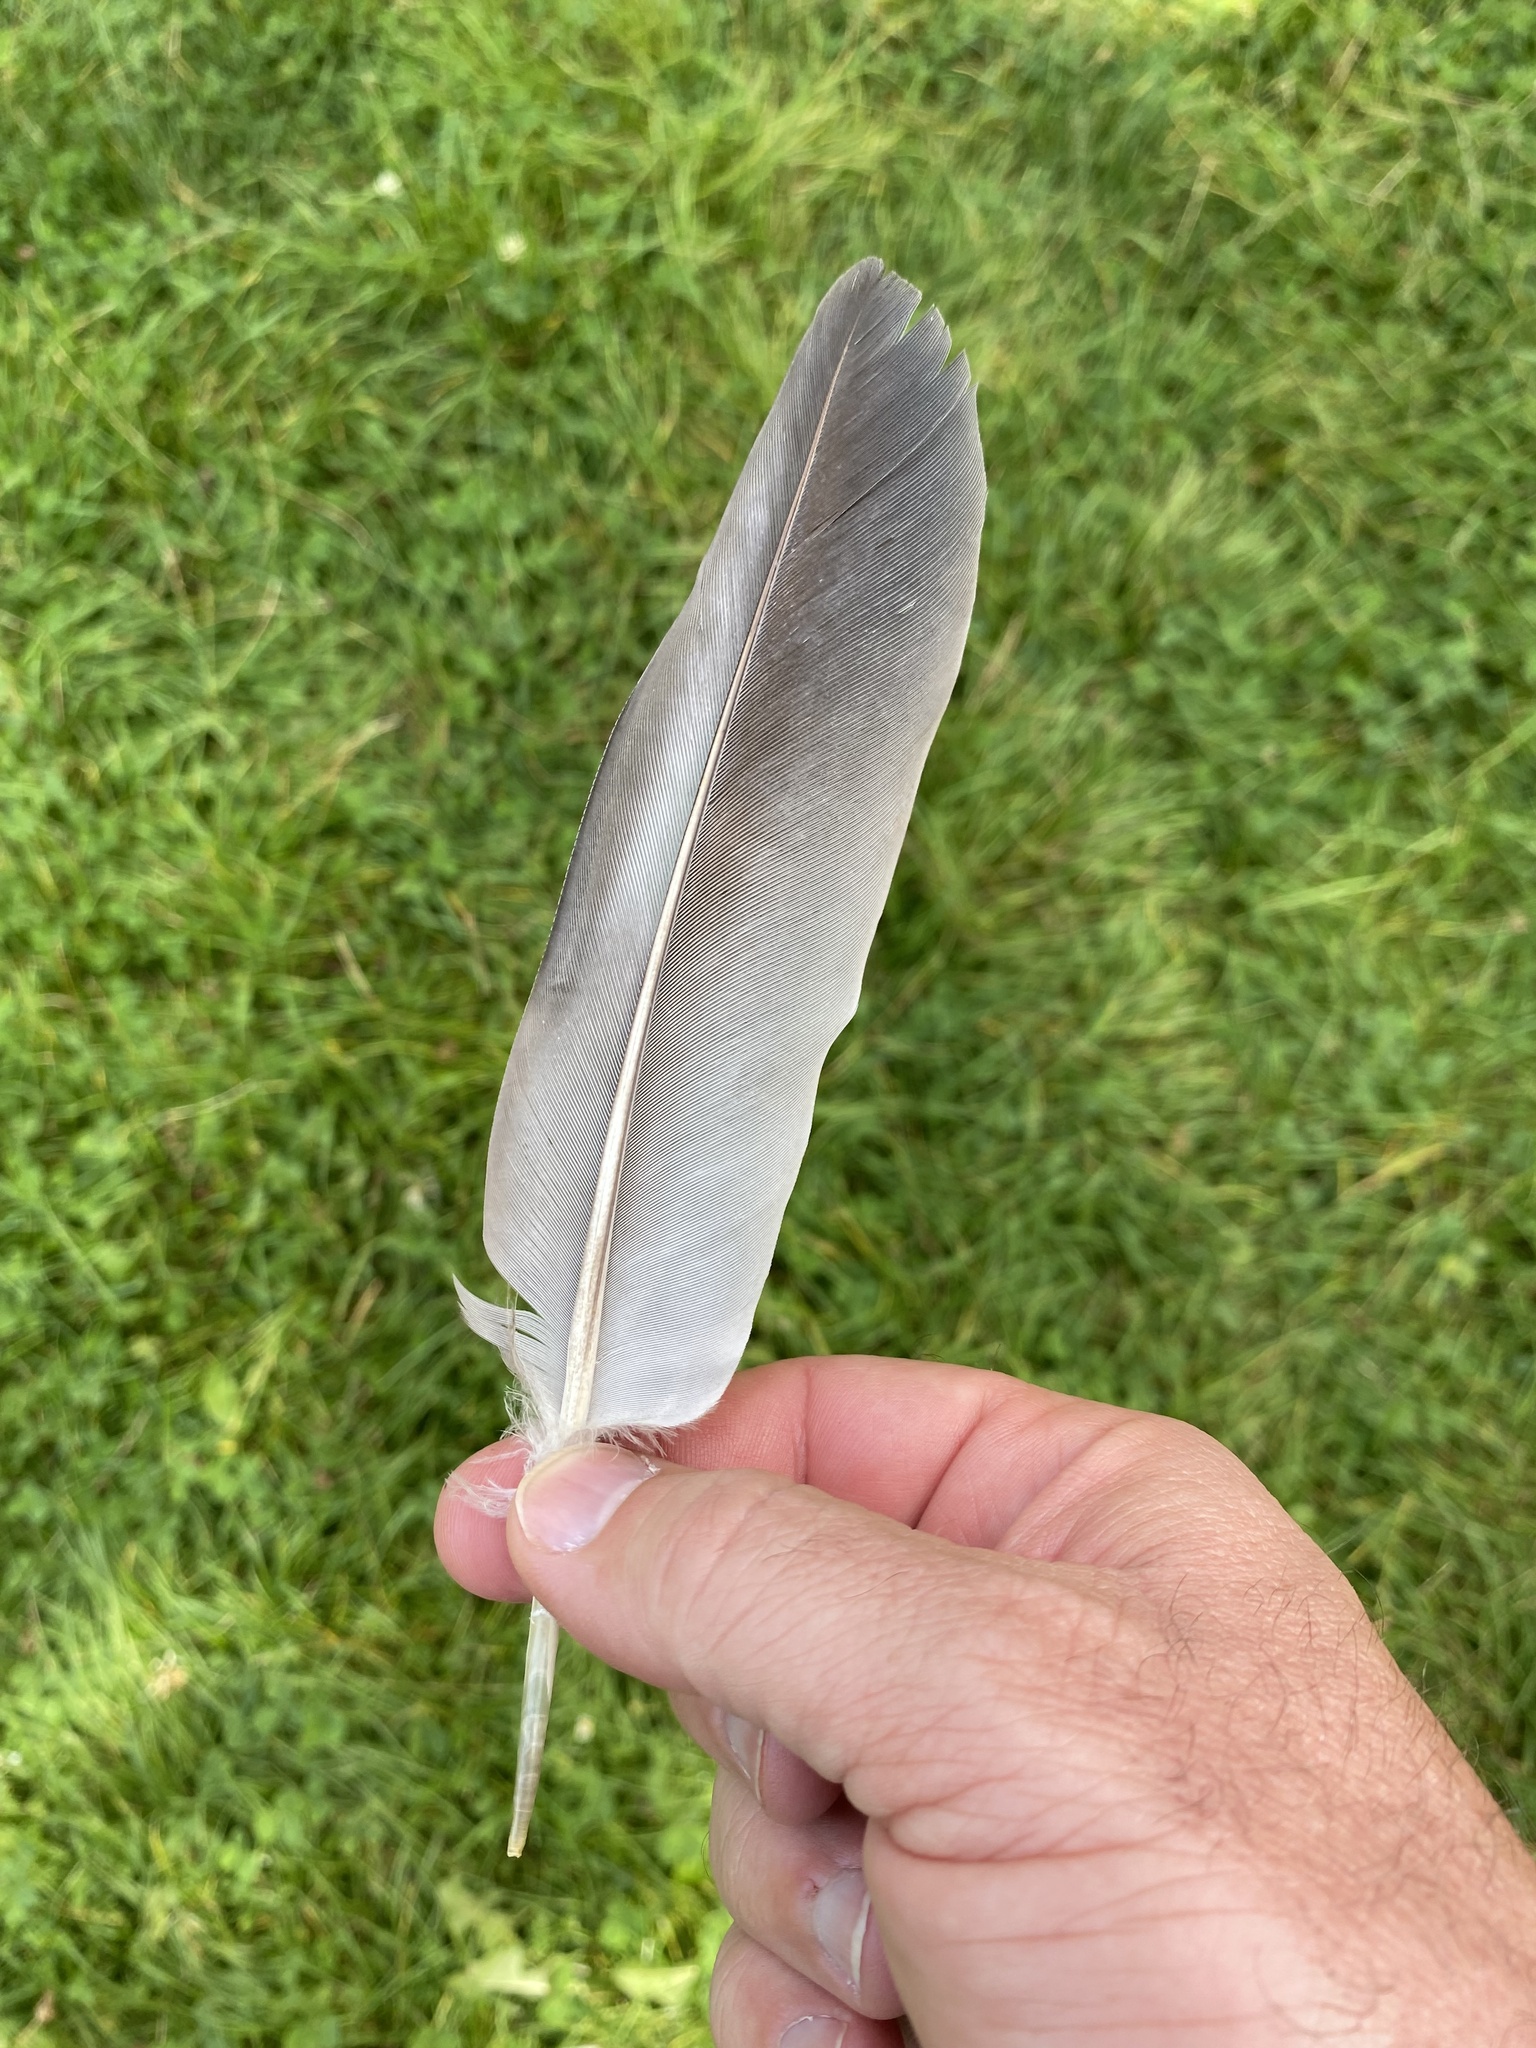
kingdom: Animalia
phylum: Chordata
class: Aves
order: Columbiformes
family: Columbidae
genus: Hemiphaga
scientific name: Hemiphaga novaeseelandiae
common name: New zealand pigeon
